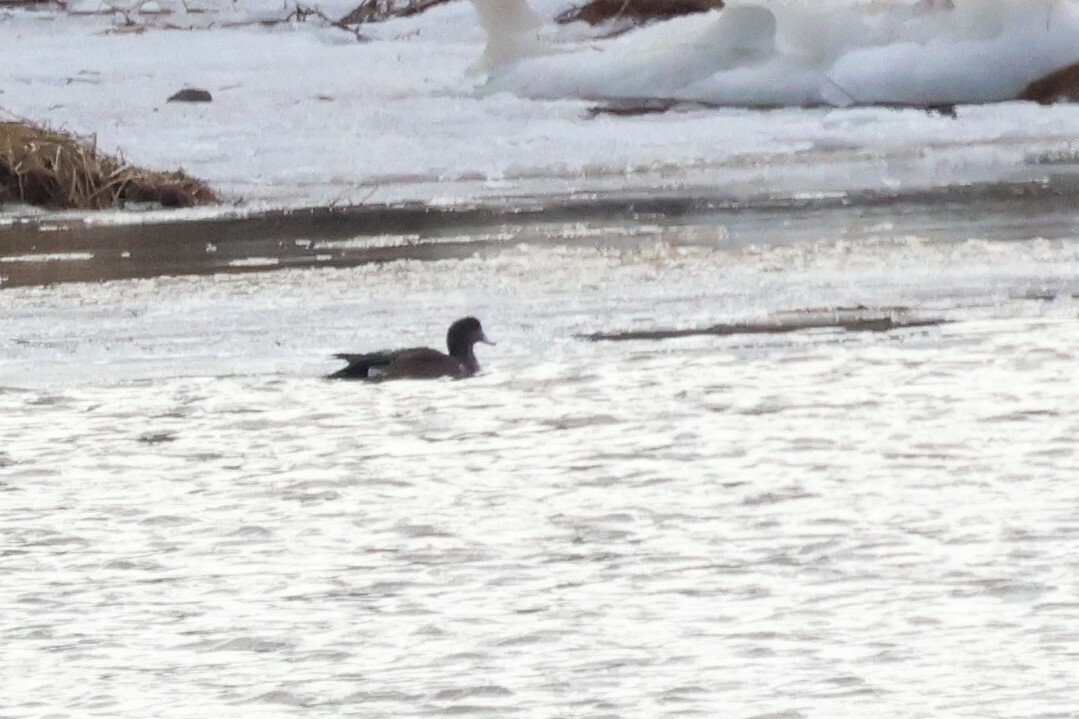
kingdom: Animalia
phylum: Chordata
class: Aves
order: Anseriformes
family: Anatidae
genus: Mareca
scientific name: Mareca americana
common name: American wigeon
